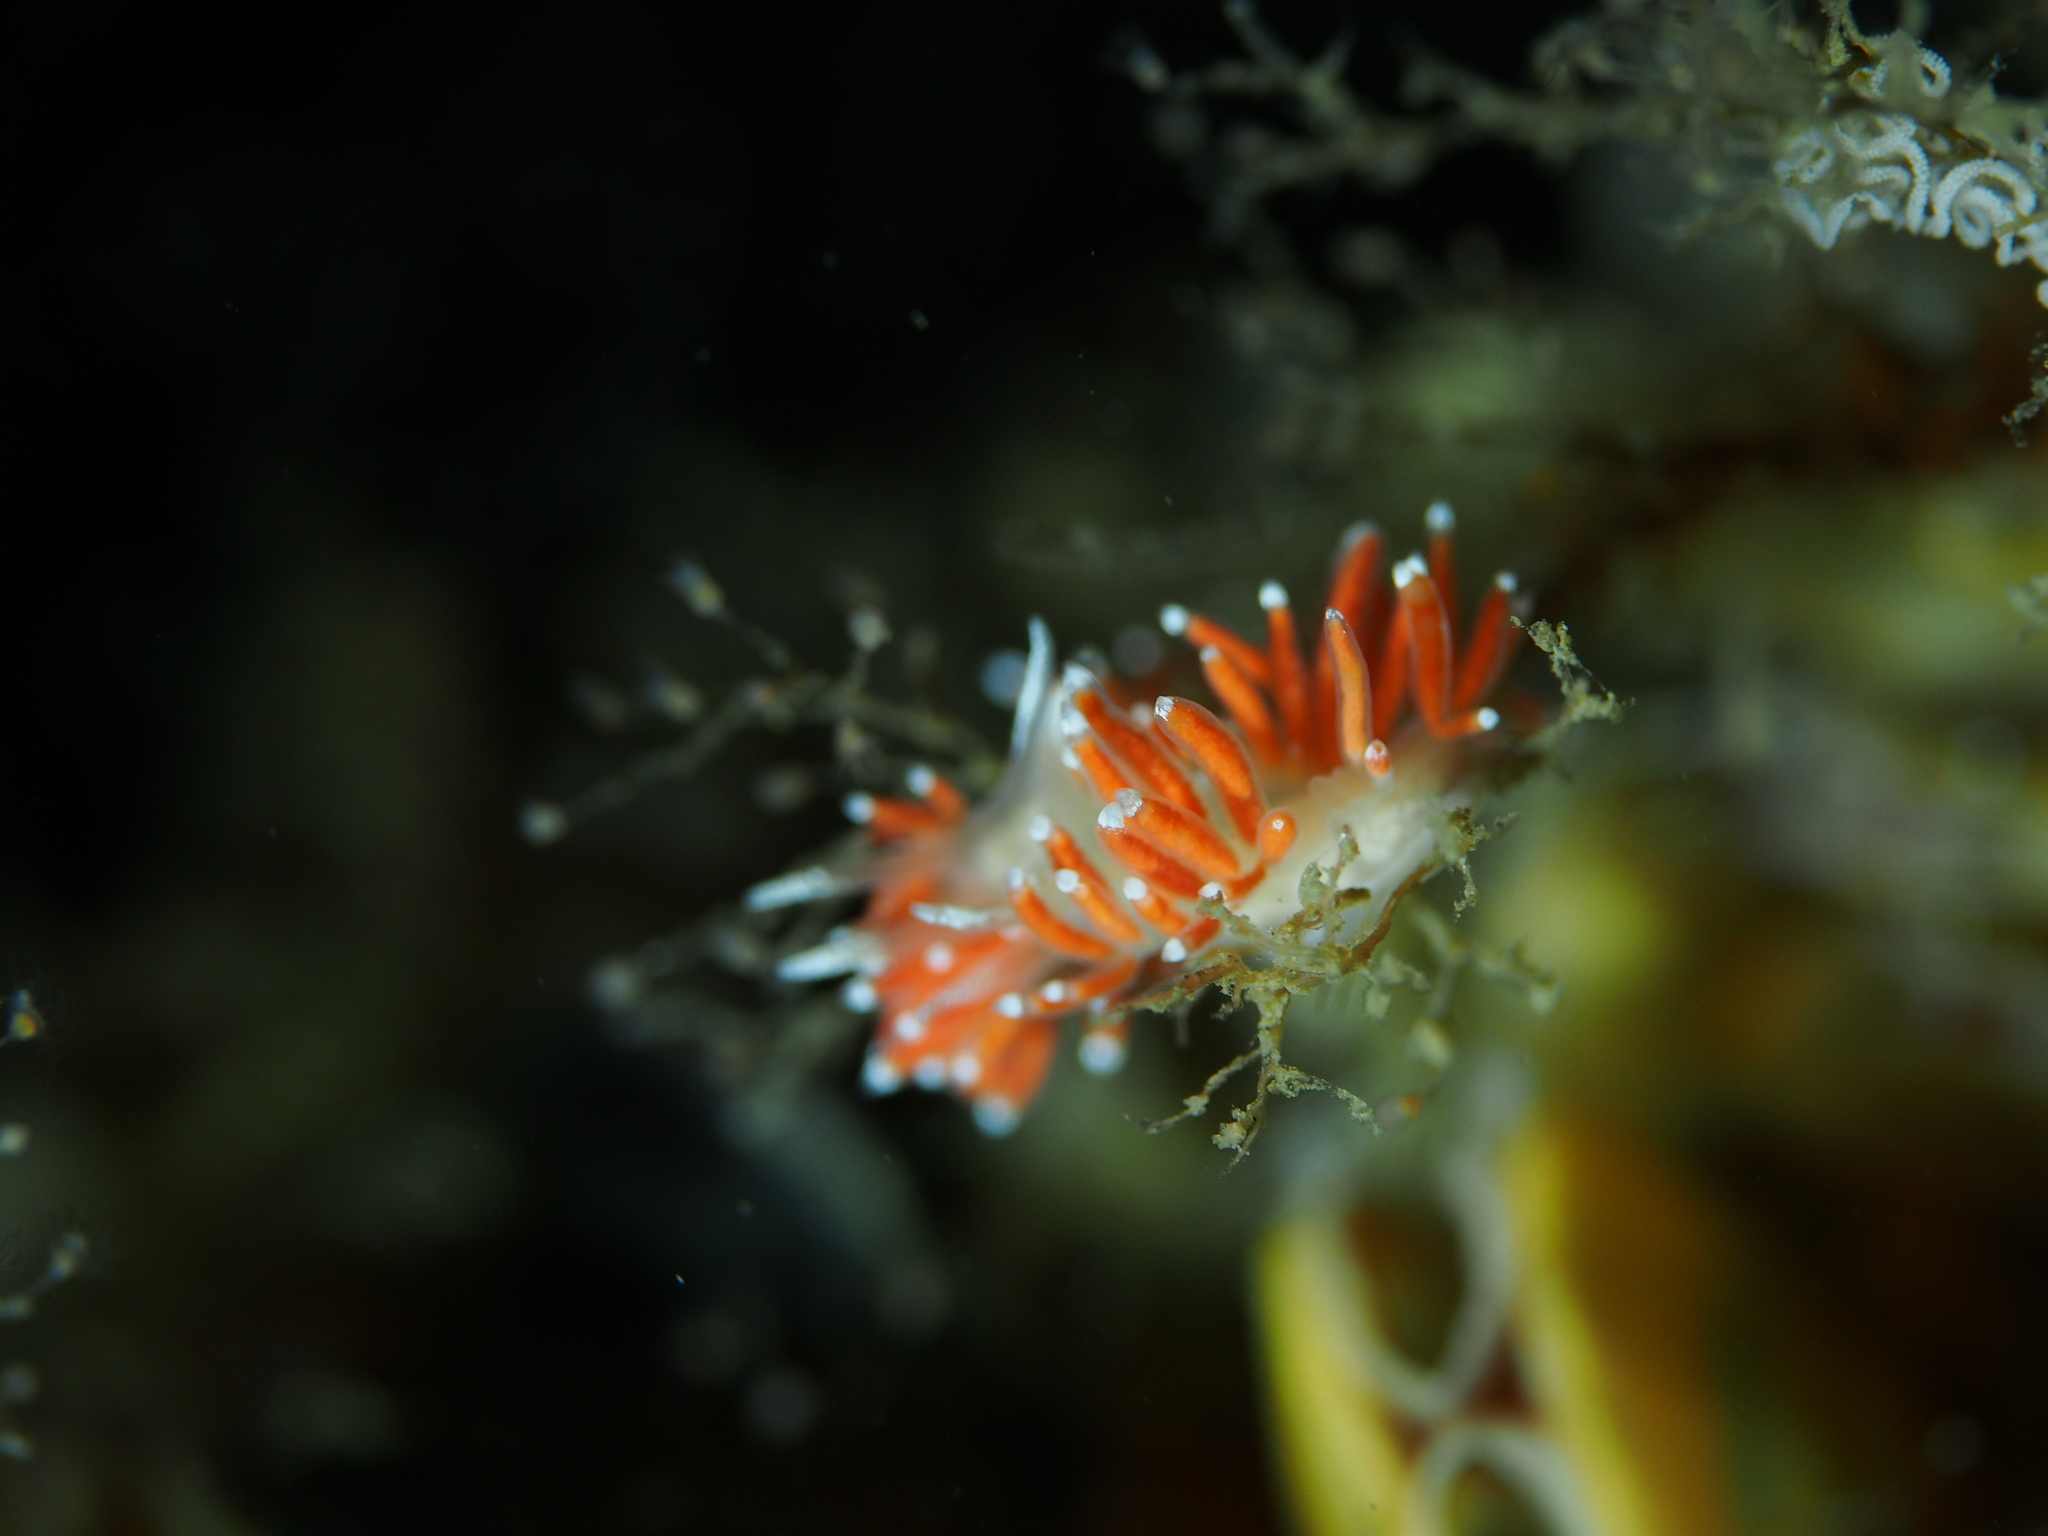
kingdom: Animalia
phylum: Mollusca
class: Gastropoda
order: Nudibranchia
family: Coryphellidae
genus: Coryphella
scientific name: Coryphella gracilis
